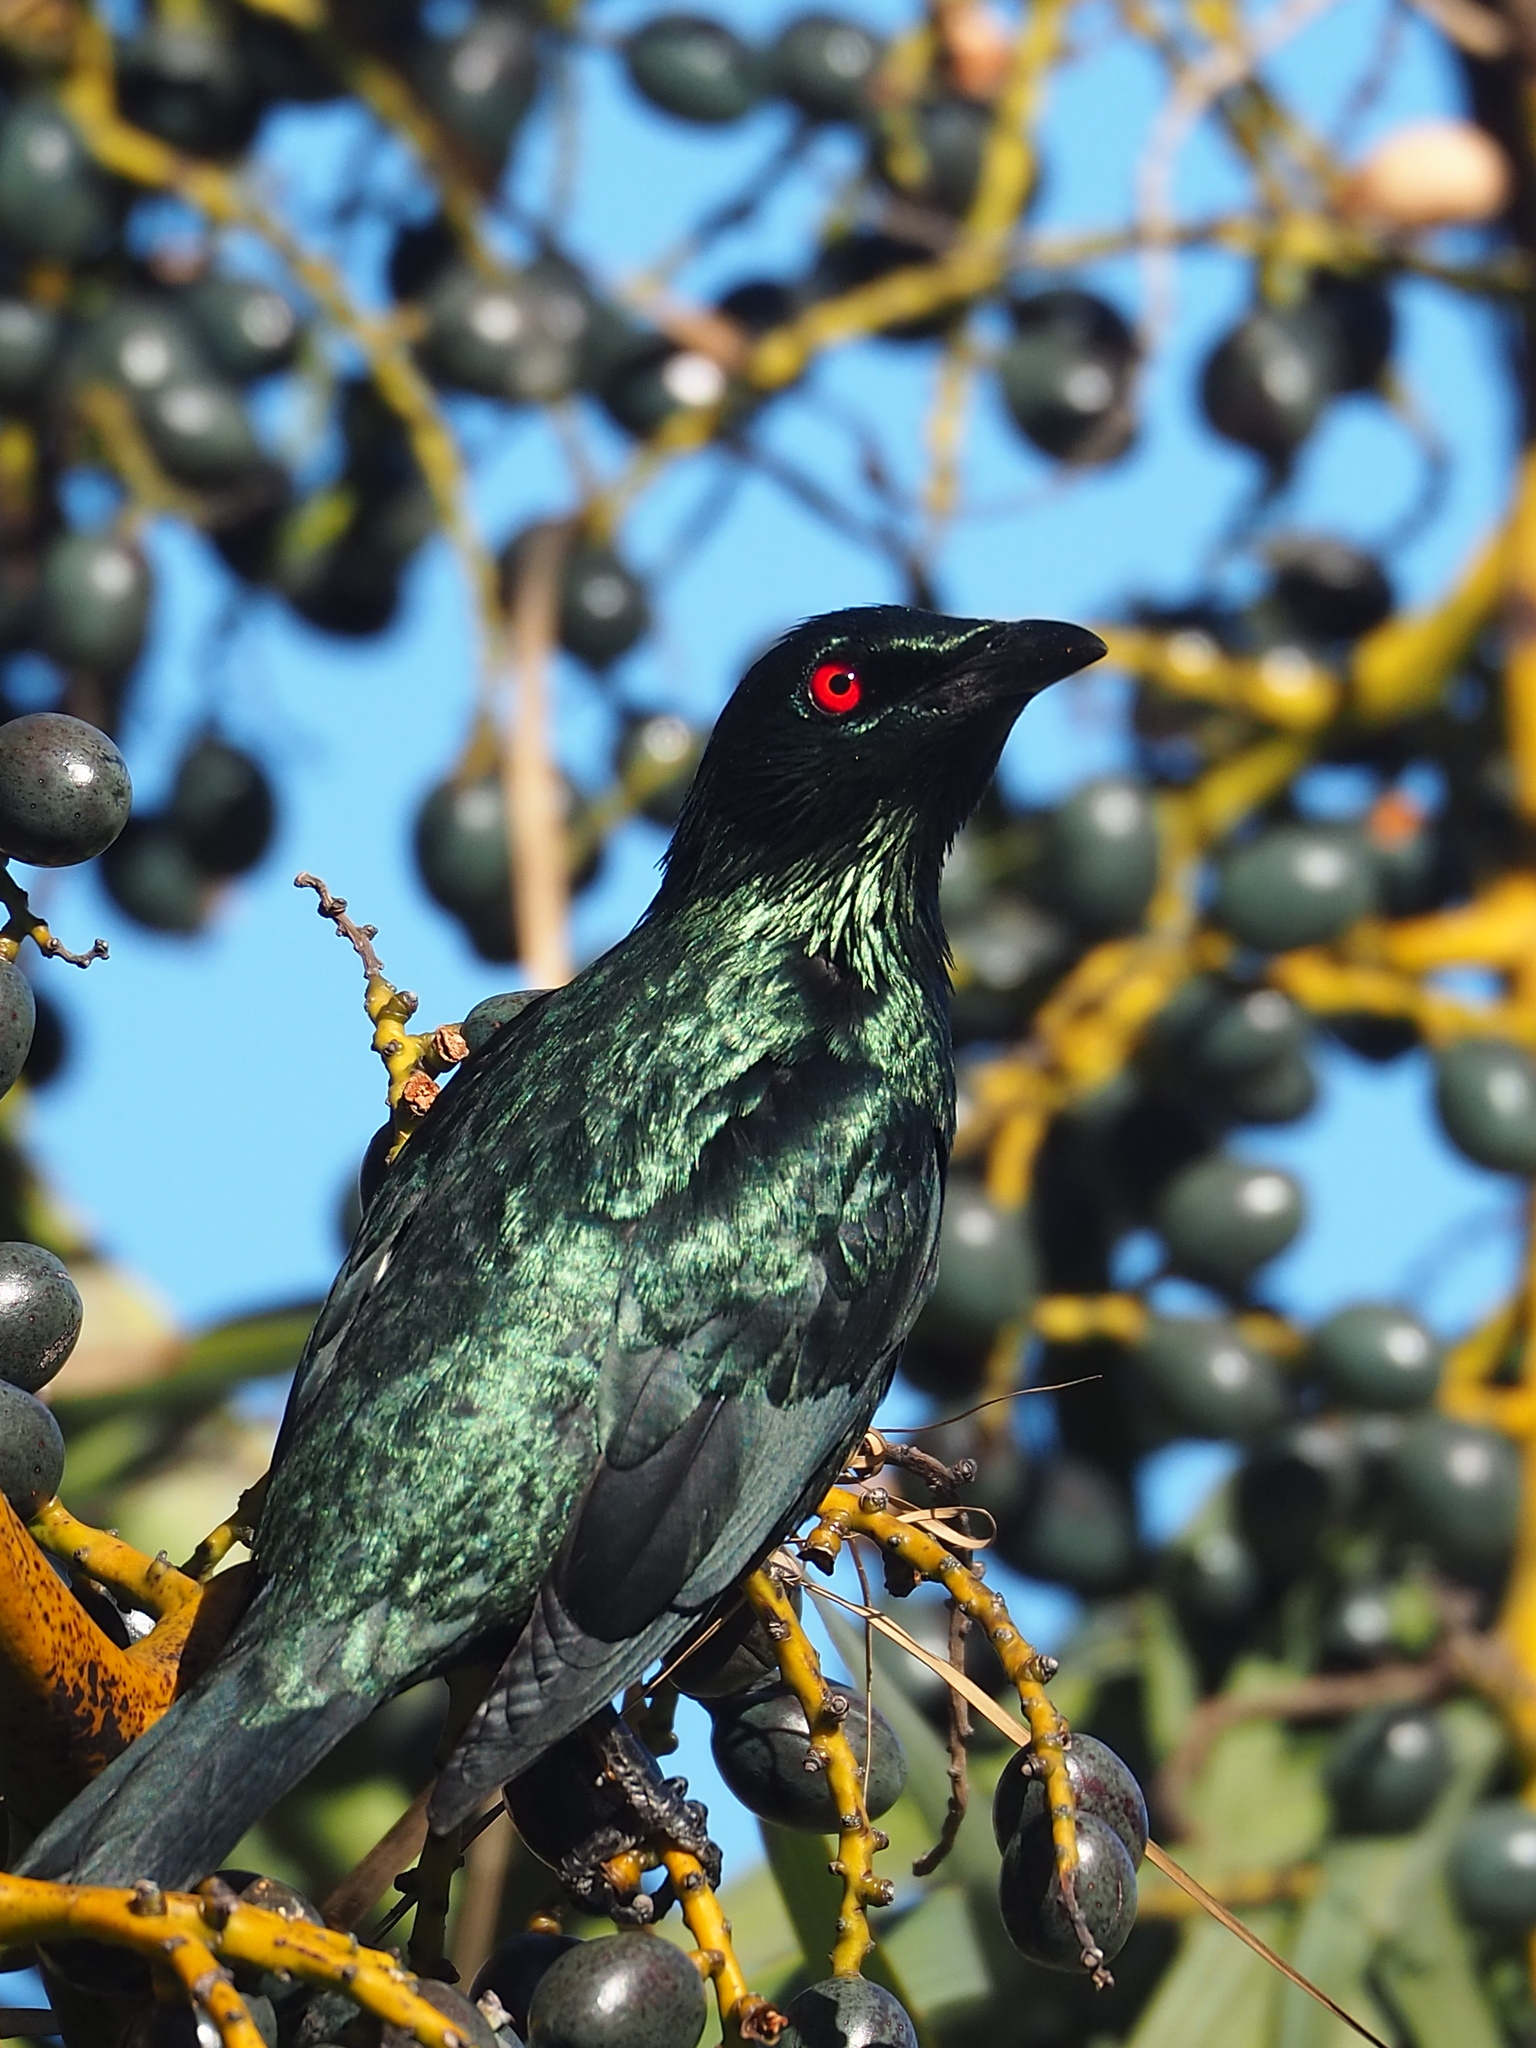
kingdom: Animalia
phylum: Chordata
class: Aves
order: Passeriformes
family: Sturnidae
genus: Aplonis
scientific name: Aplonis panayensis
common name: Asian glossy starling
